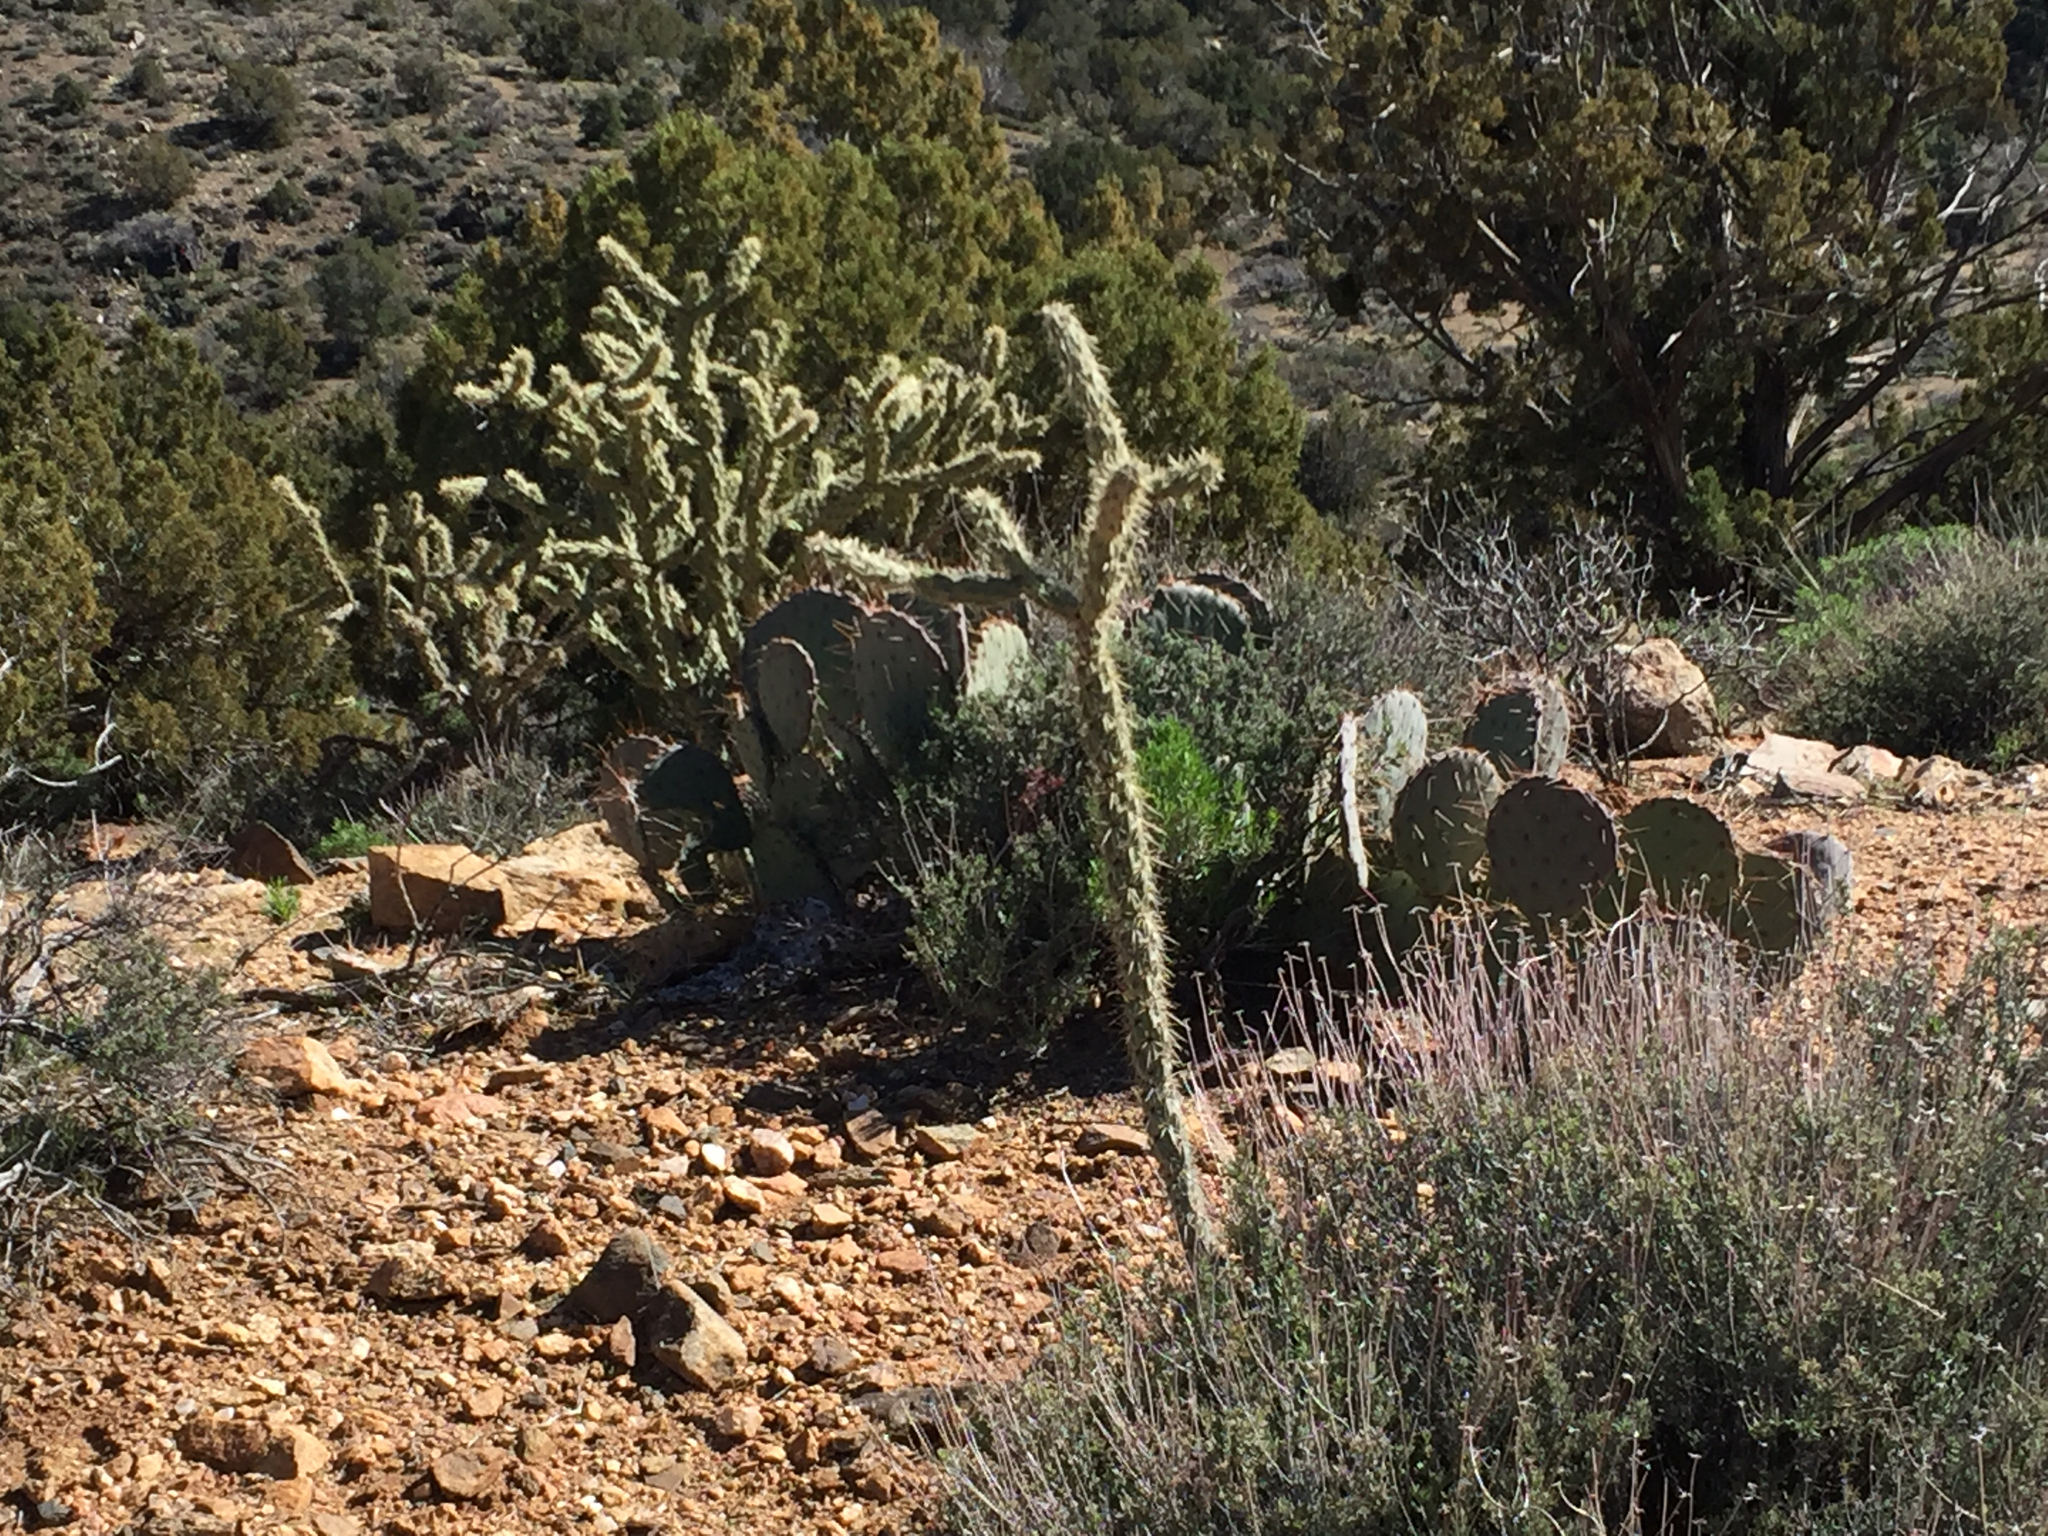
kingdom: Plantae
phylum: Tracheophyta
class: Magnoliopsida
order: Caryophyllales
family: Cactaceae
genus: Cylindropuntia
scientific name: Cylindropuntia acanthocarpa
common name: Buckhorn cholla
